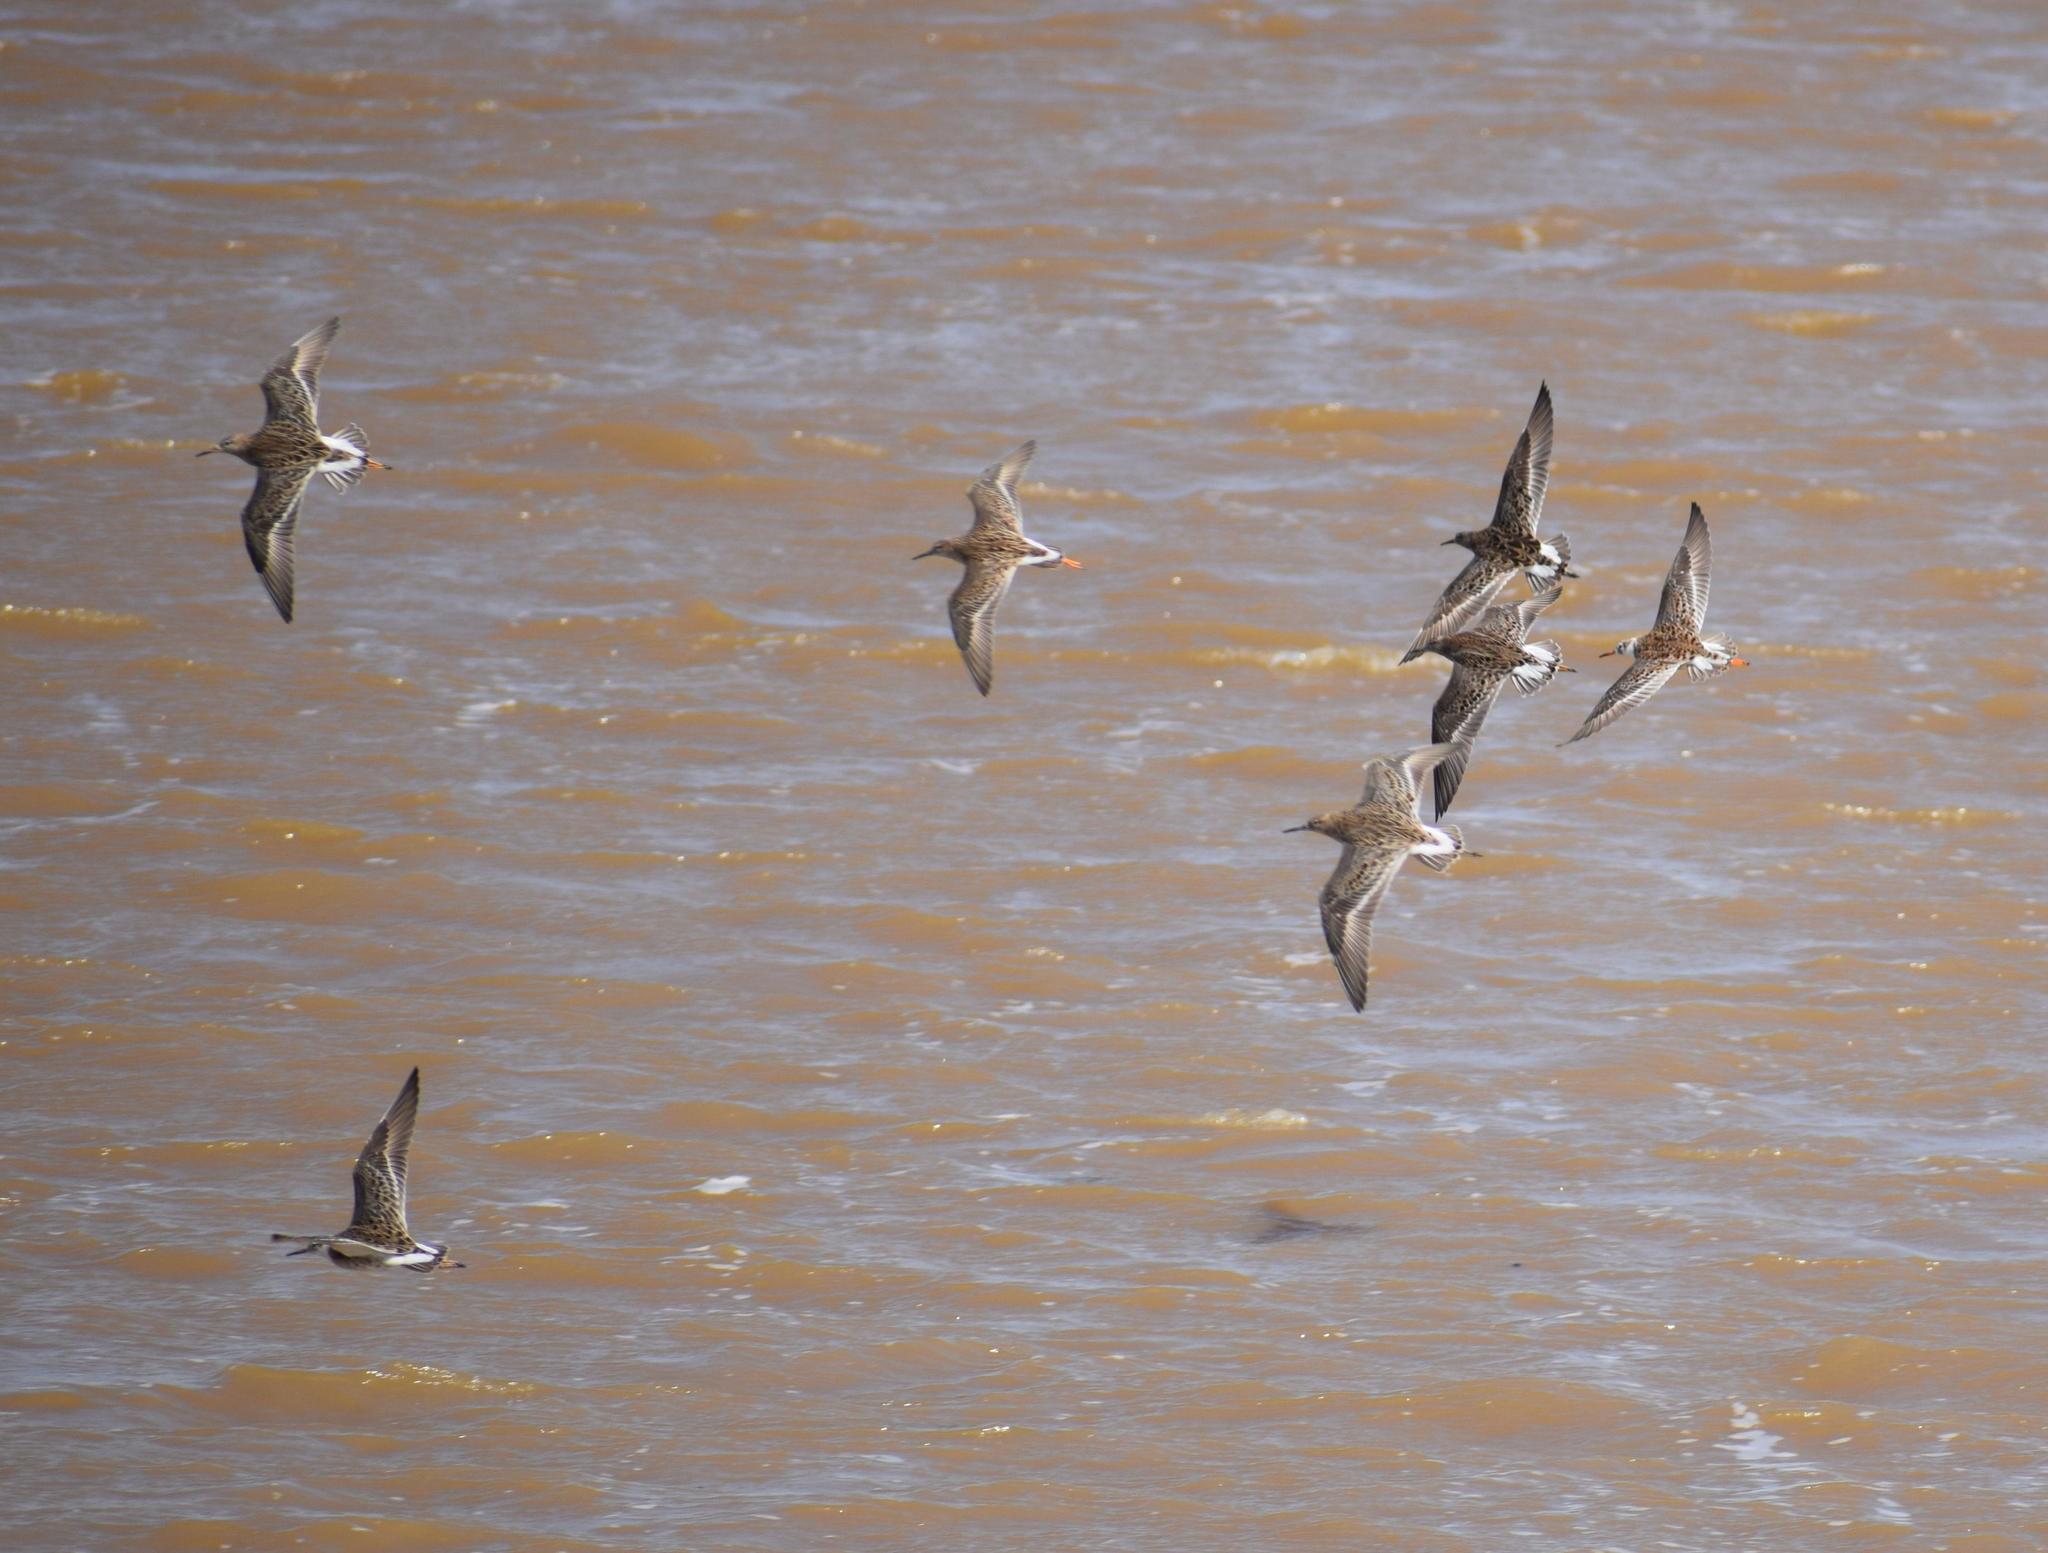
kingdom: Animalia
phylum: Chordata
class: Aves
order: Charadriiformes
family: Scolopacidae
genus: Calidris
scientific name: Calidris pugnax
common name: Ruff
